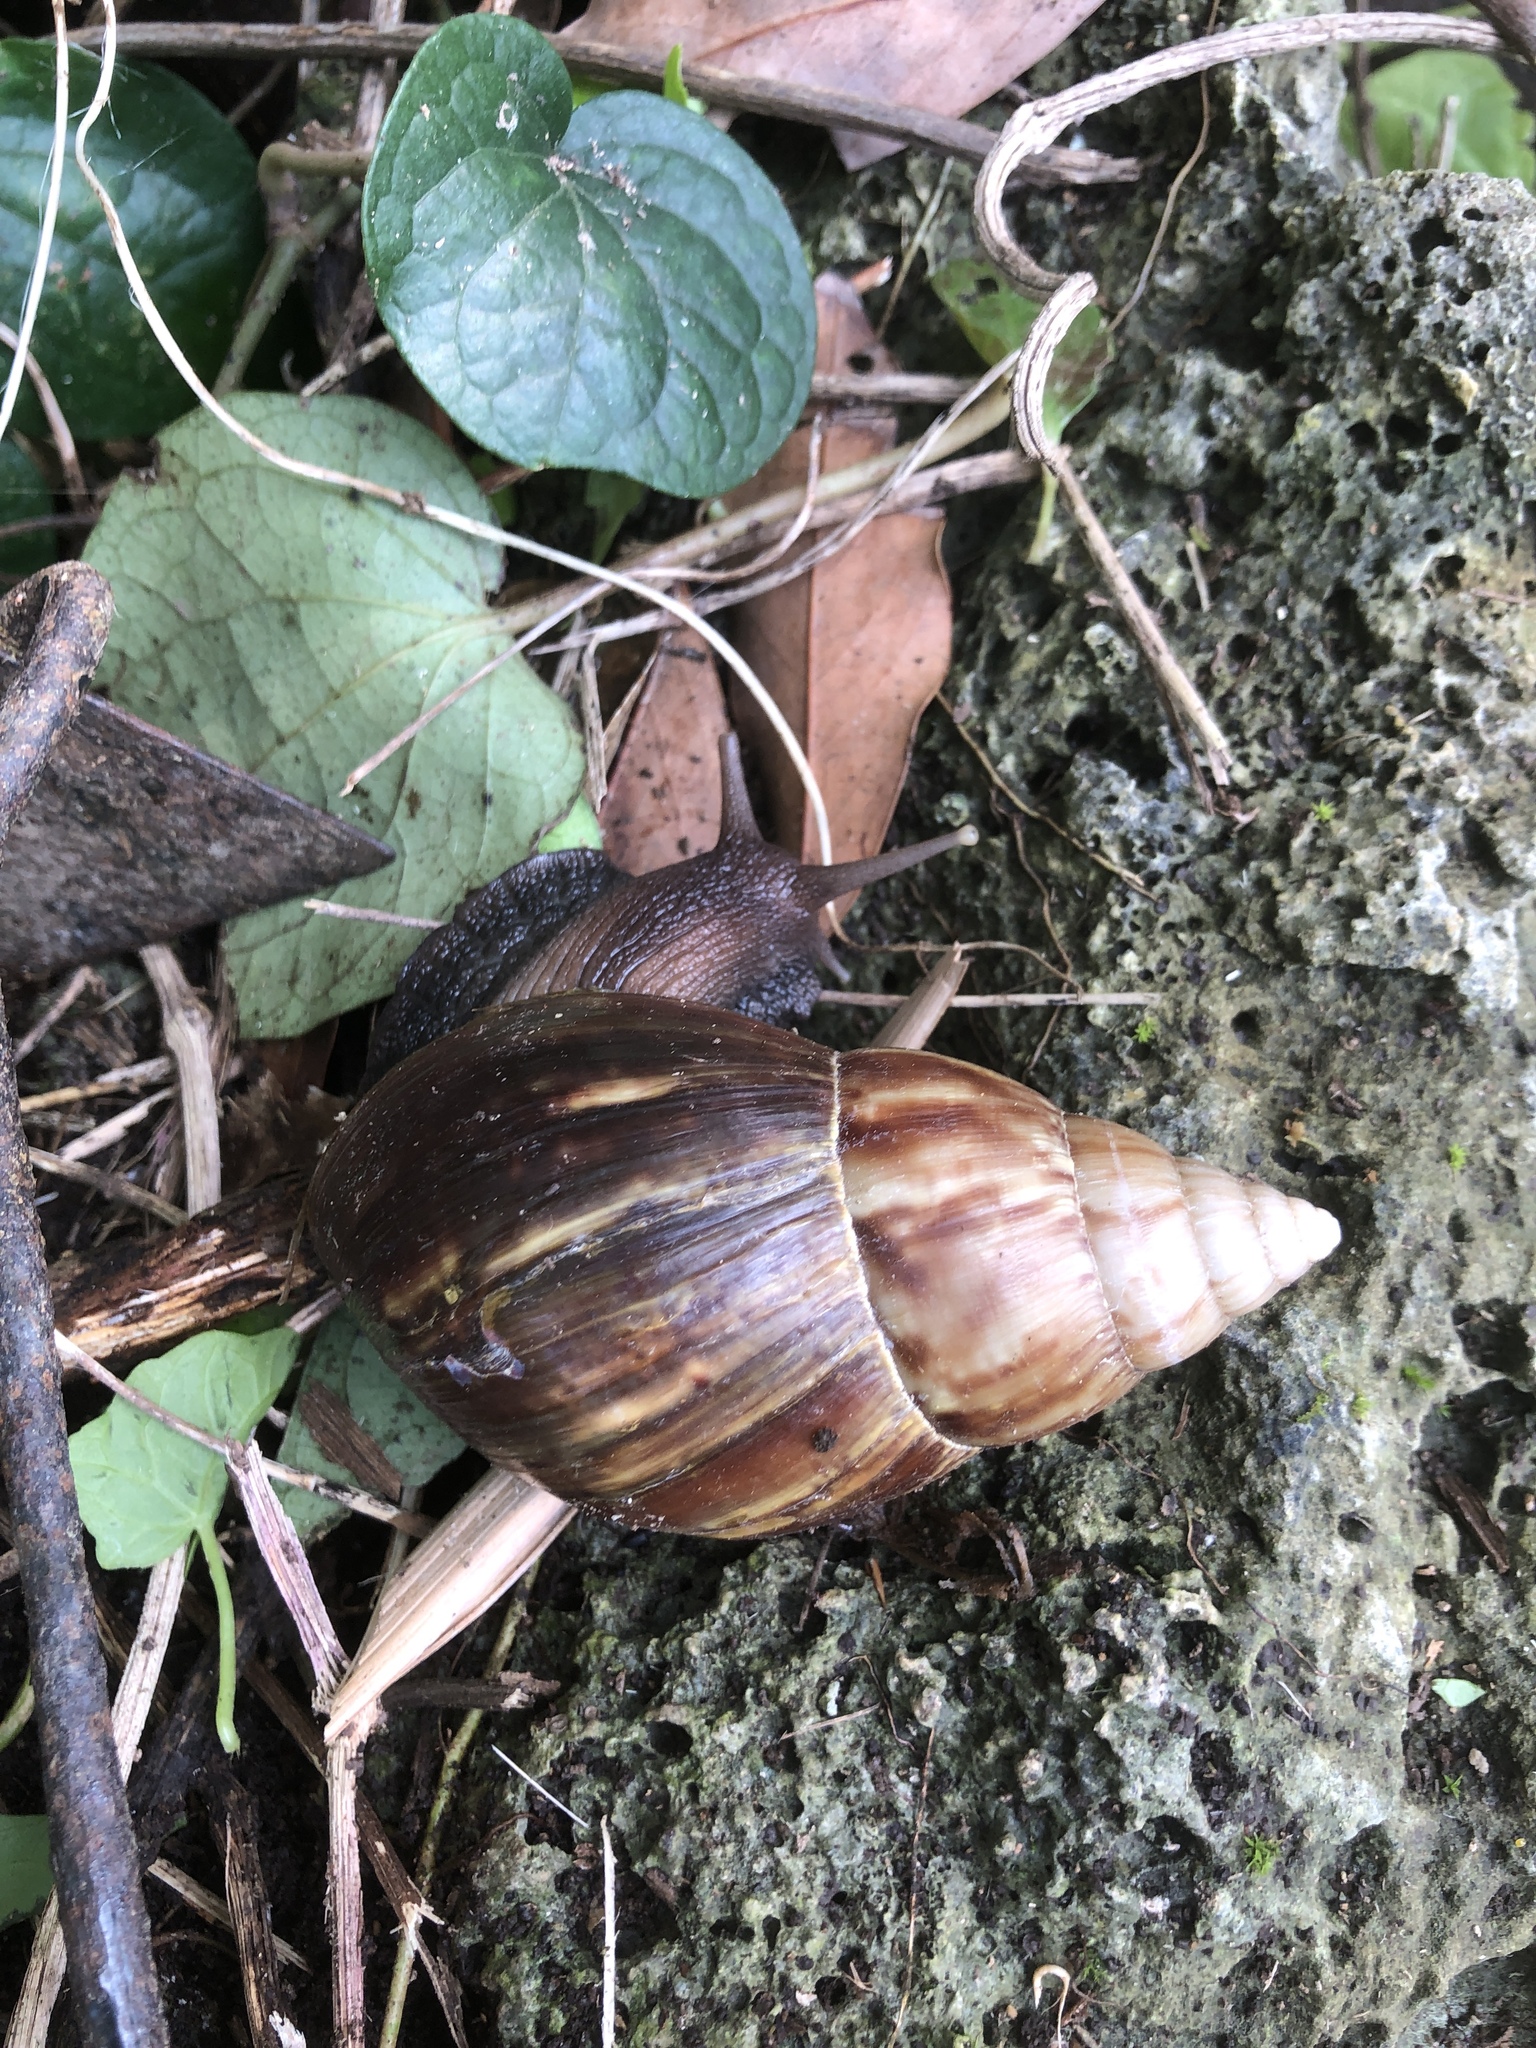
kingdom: Animalia
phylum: Mollusca
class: Gastropoda
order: Stylommatophora
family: Achatinidae
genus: Lissachatina
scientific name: Lissachatina fulica
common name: Giant african snail
